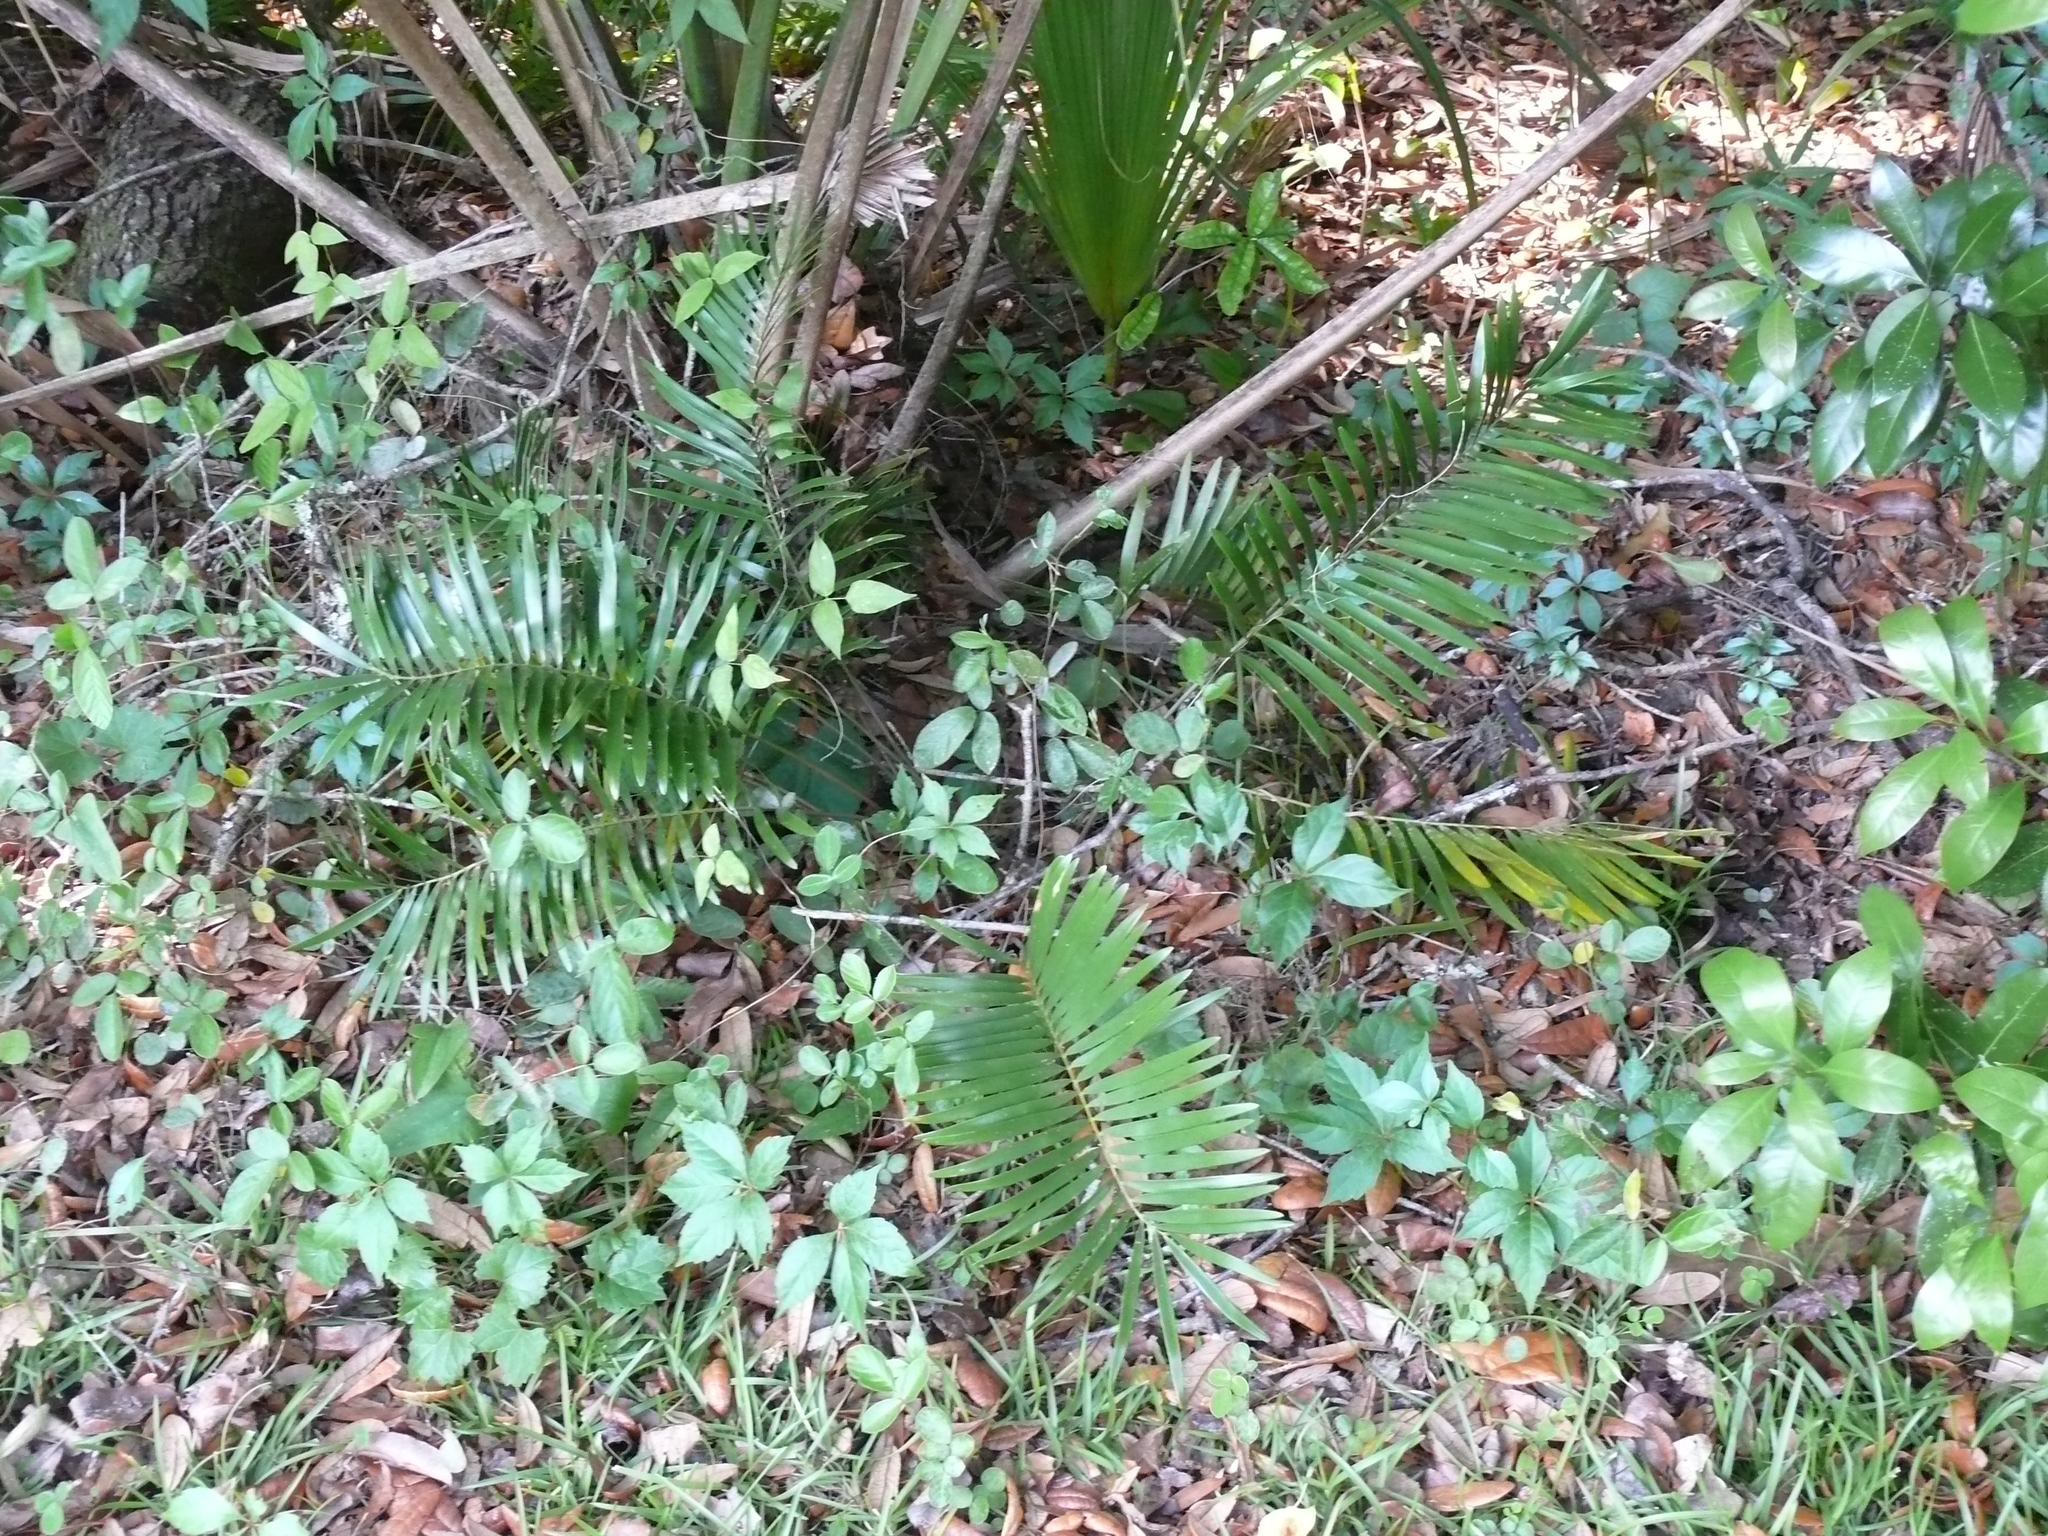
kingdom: Plantae
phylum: Tracheophyta
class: Cycadopsida
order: Cycadales
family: Zamiaceae
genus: Zamia
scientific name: Zamia integrifolia
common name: Florida arrowroot
